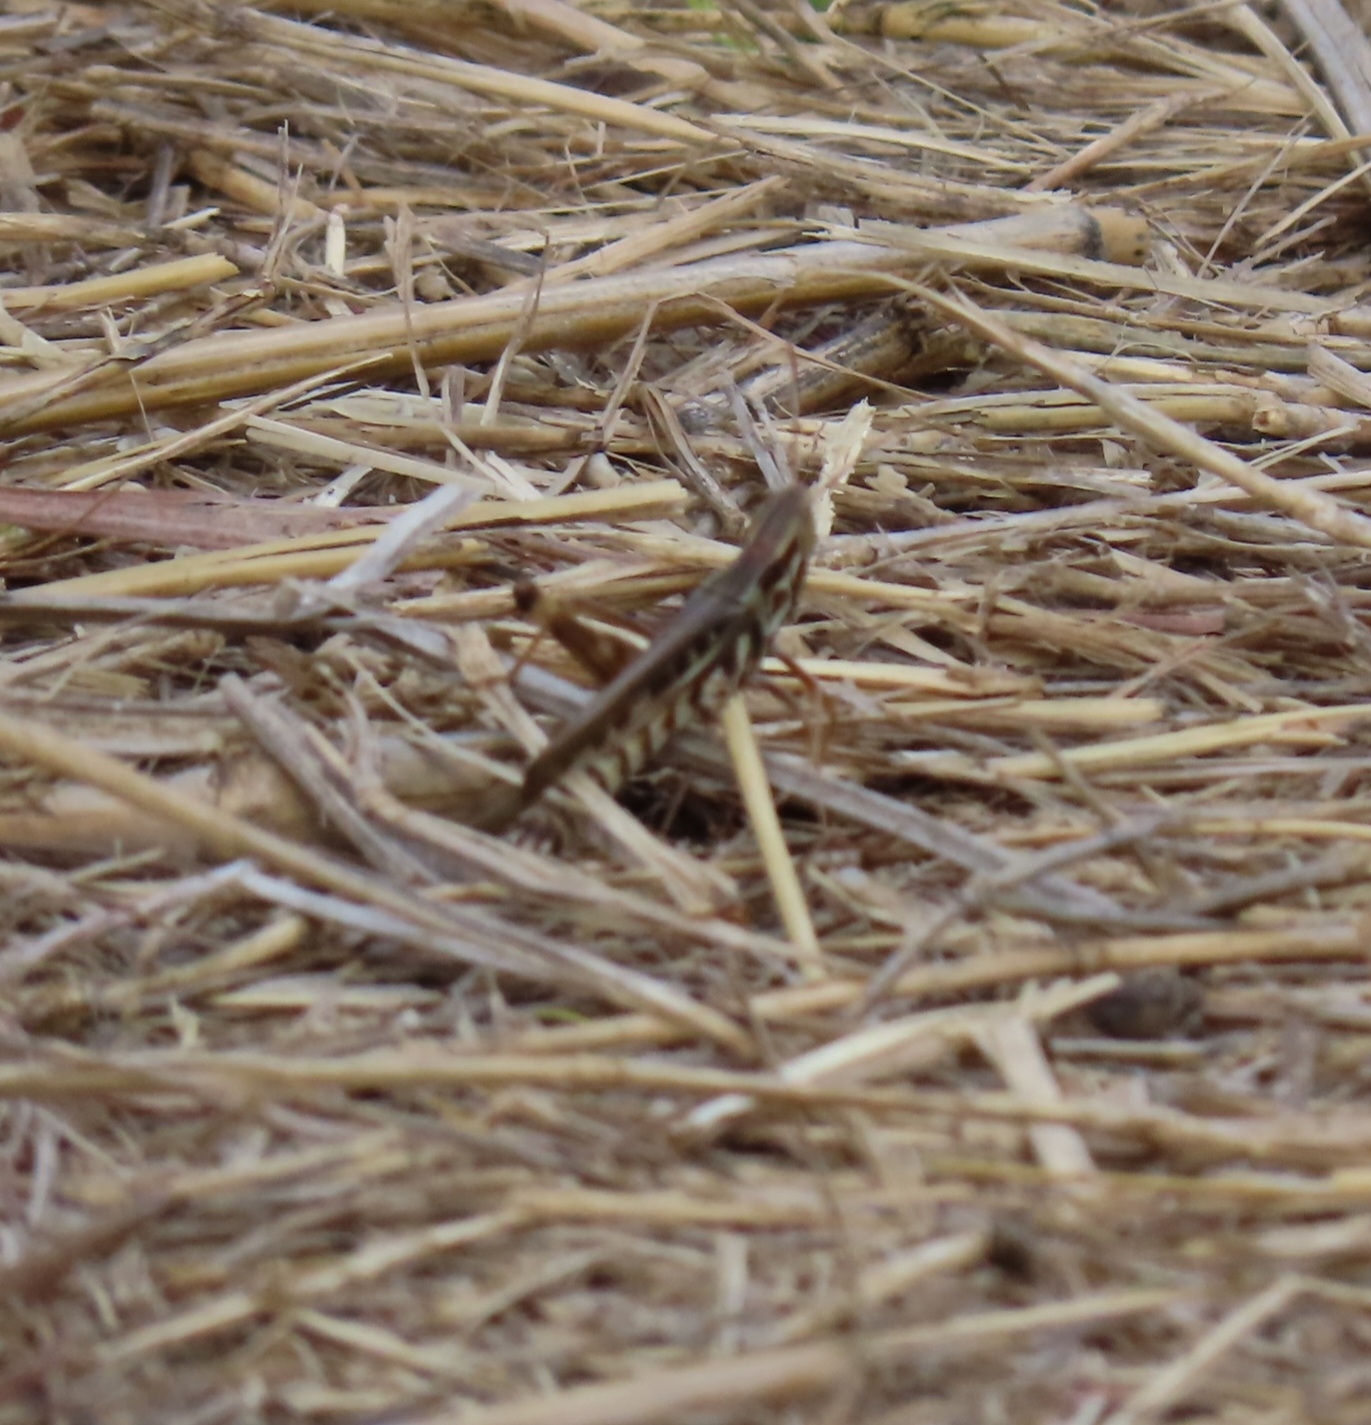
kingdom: Animalia
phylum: Arthropoda
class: Insecta
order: Orthoptera
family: Acrididae
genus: Syrbula
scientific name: Syrbula admirabilis
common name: Handsome grasshopper
